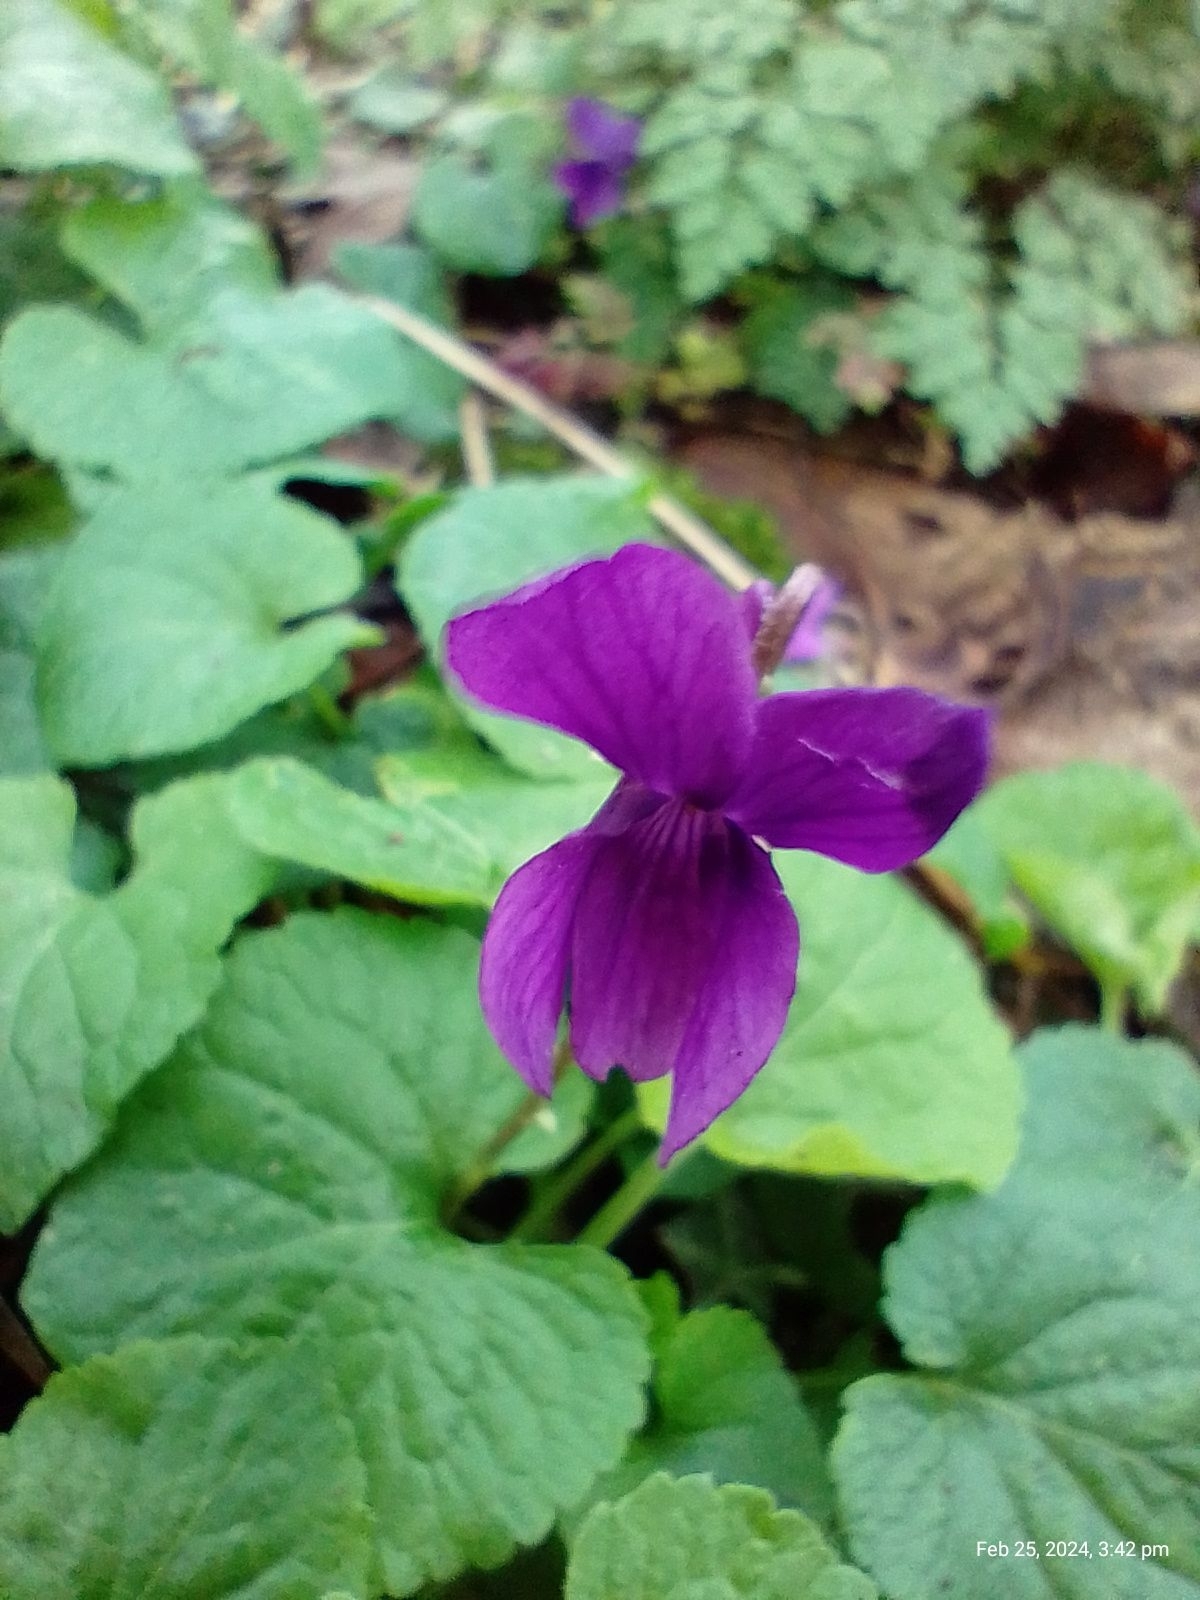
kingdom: Plantae
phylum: Tracheophyta
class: Magnoliopsida
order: Malpighiales
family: Violaceae
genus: Viola
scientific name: Viola odorata
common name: Sweet violet
